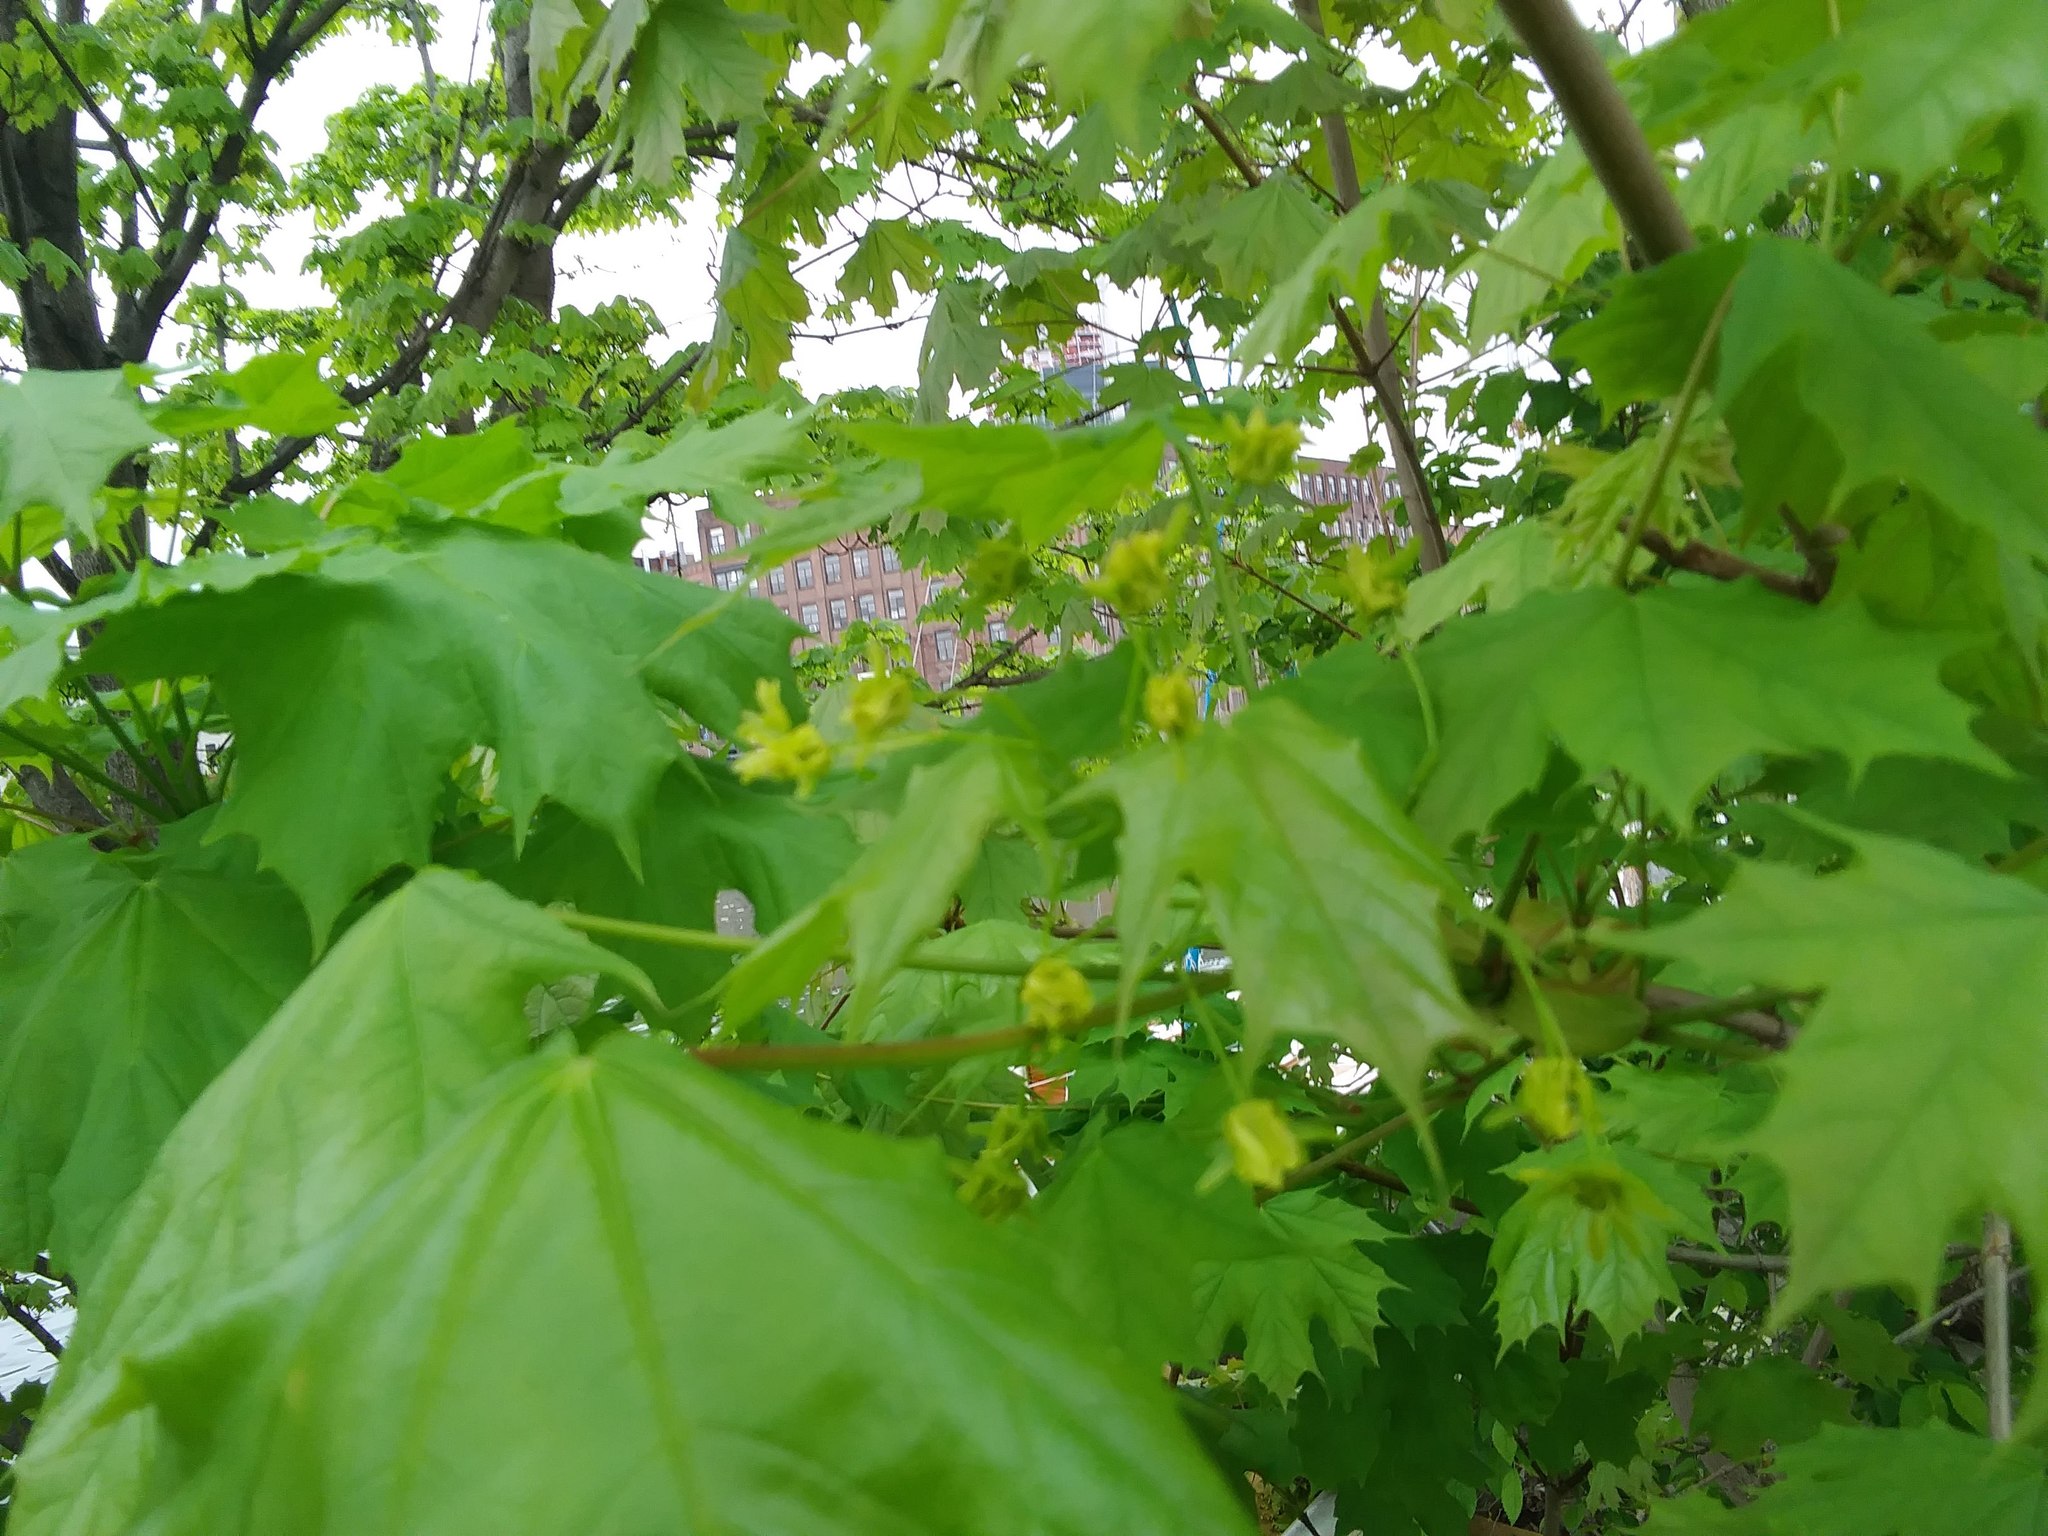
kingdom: Plantae
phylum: Tracheophyta
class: Magnoliopsida
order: Sapindales
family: Sapindaceae
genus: Acer
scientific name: Acer platanoides
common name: Norway maple
